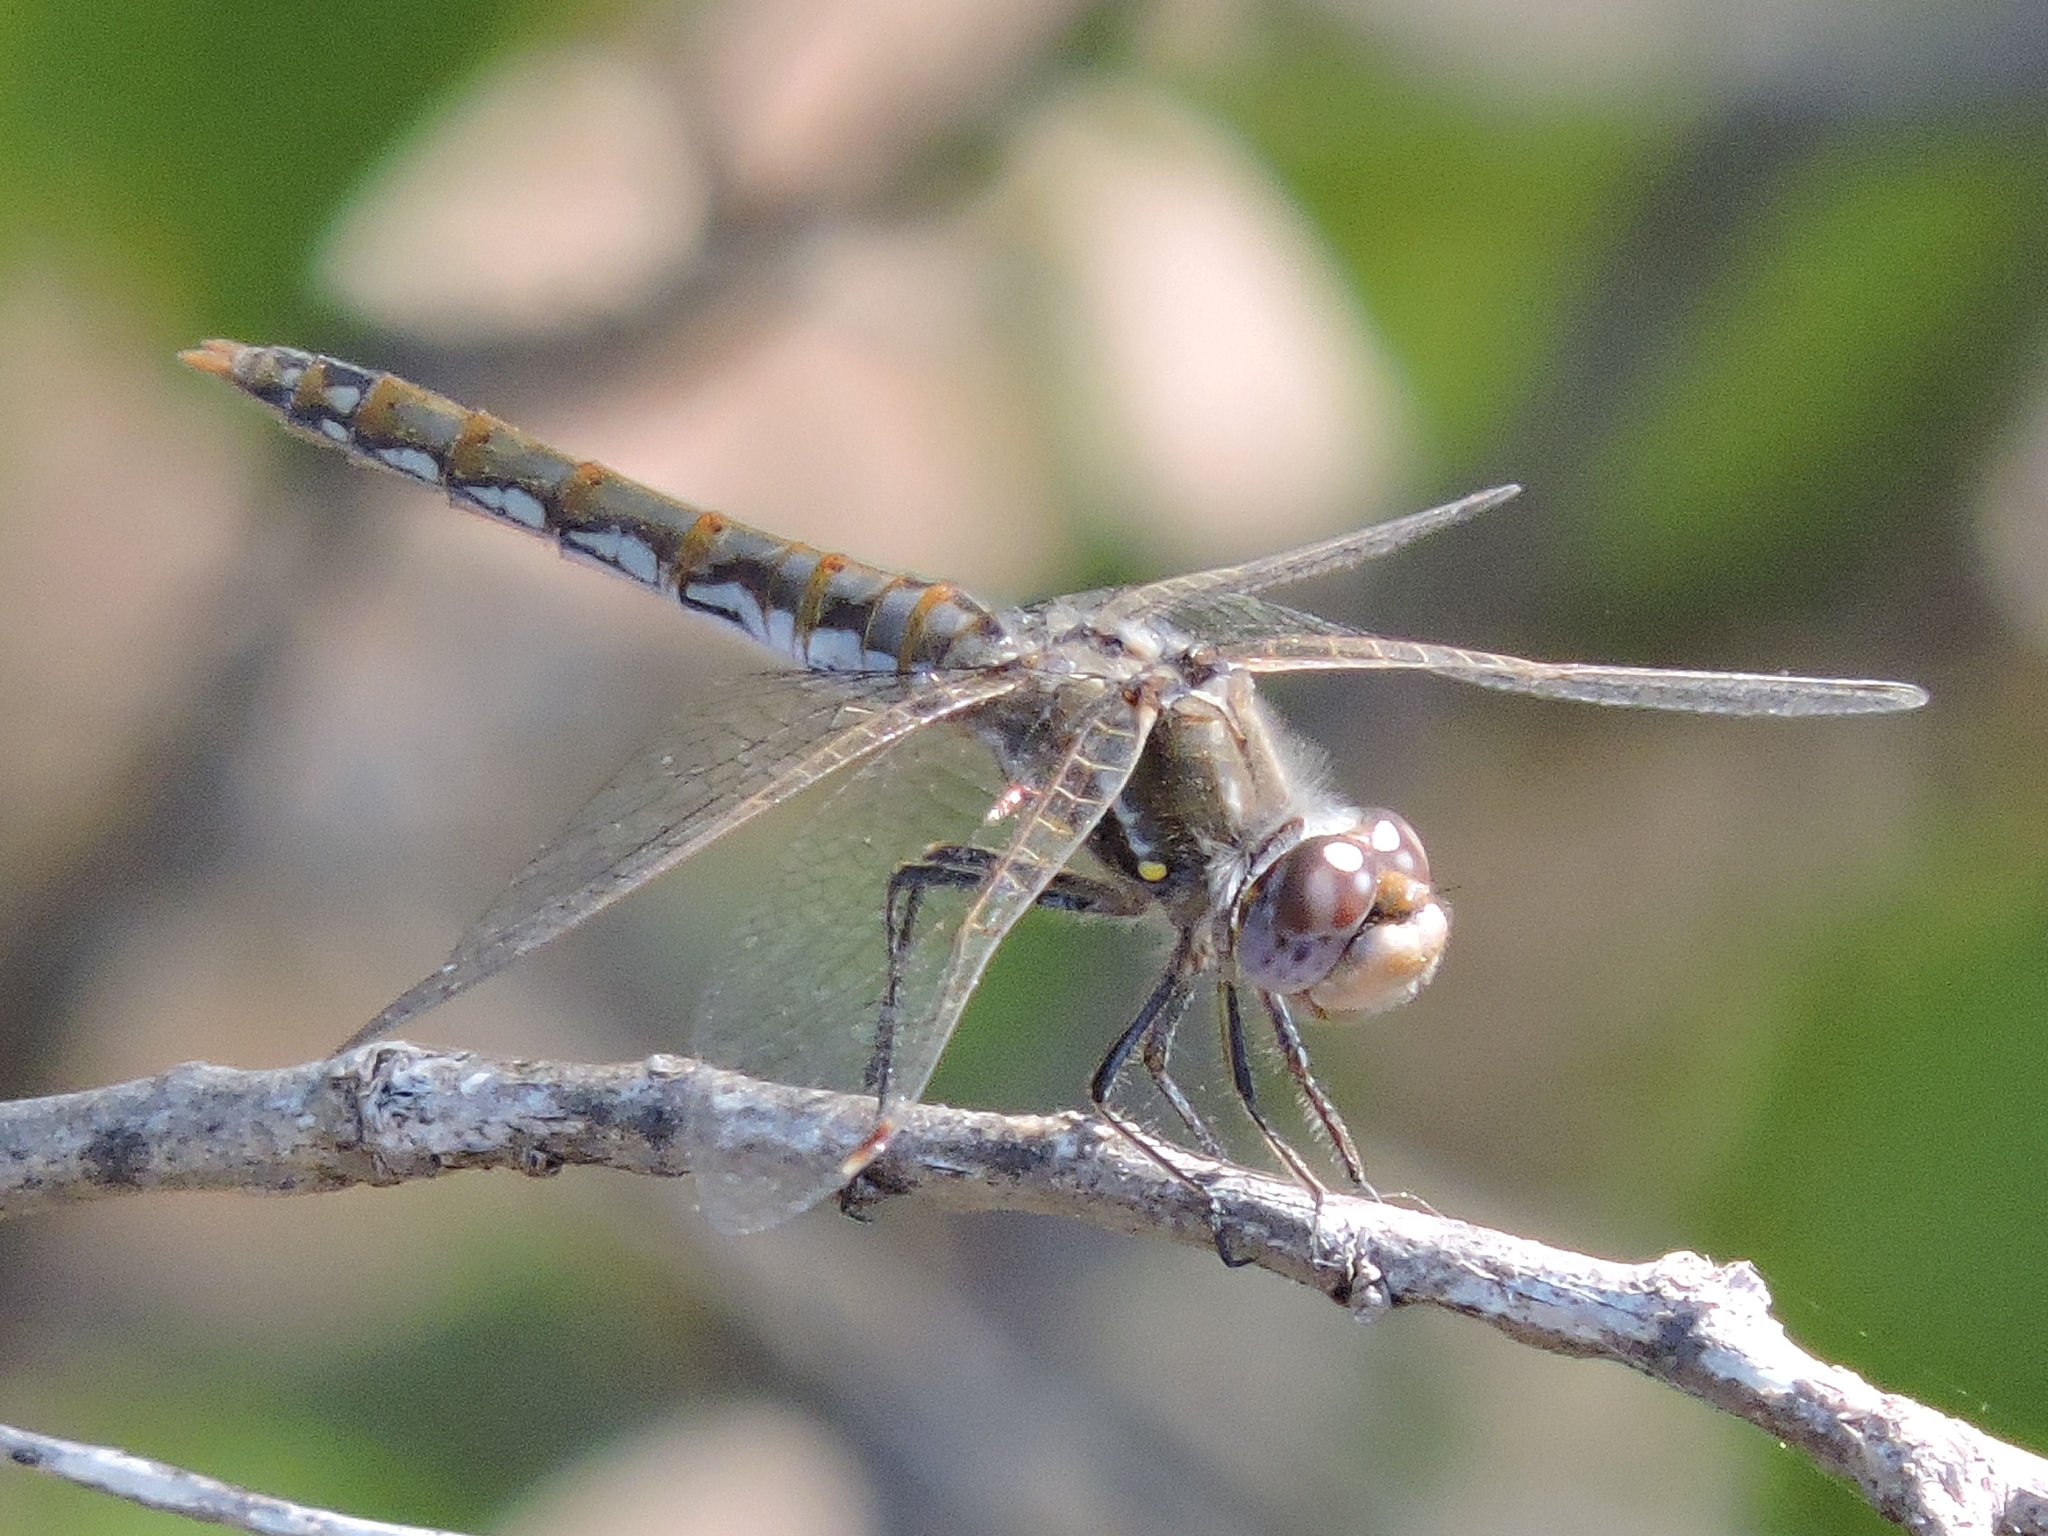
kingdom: Animalia
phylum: Arthropoda
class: Insecta
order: Odonata
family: Libellulidae
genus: Sympetrum
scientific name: Sympetrum corruptum
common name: Variegated meadowhawk
